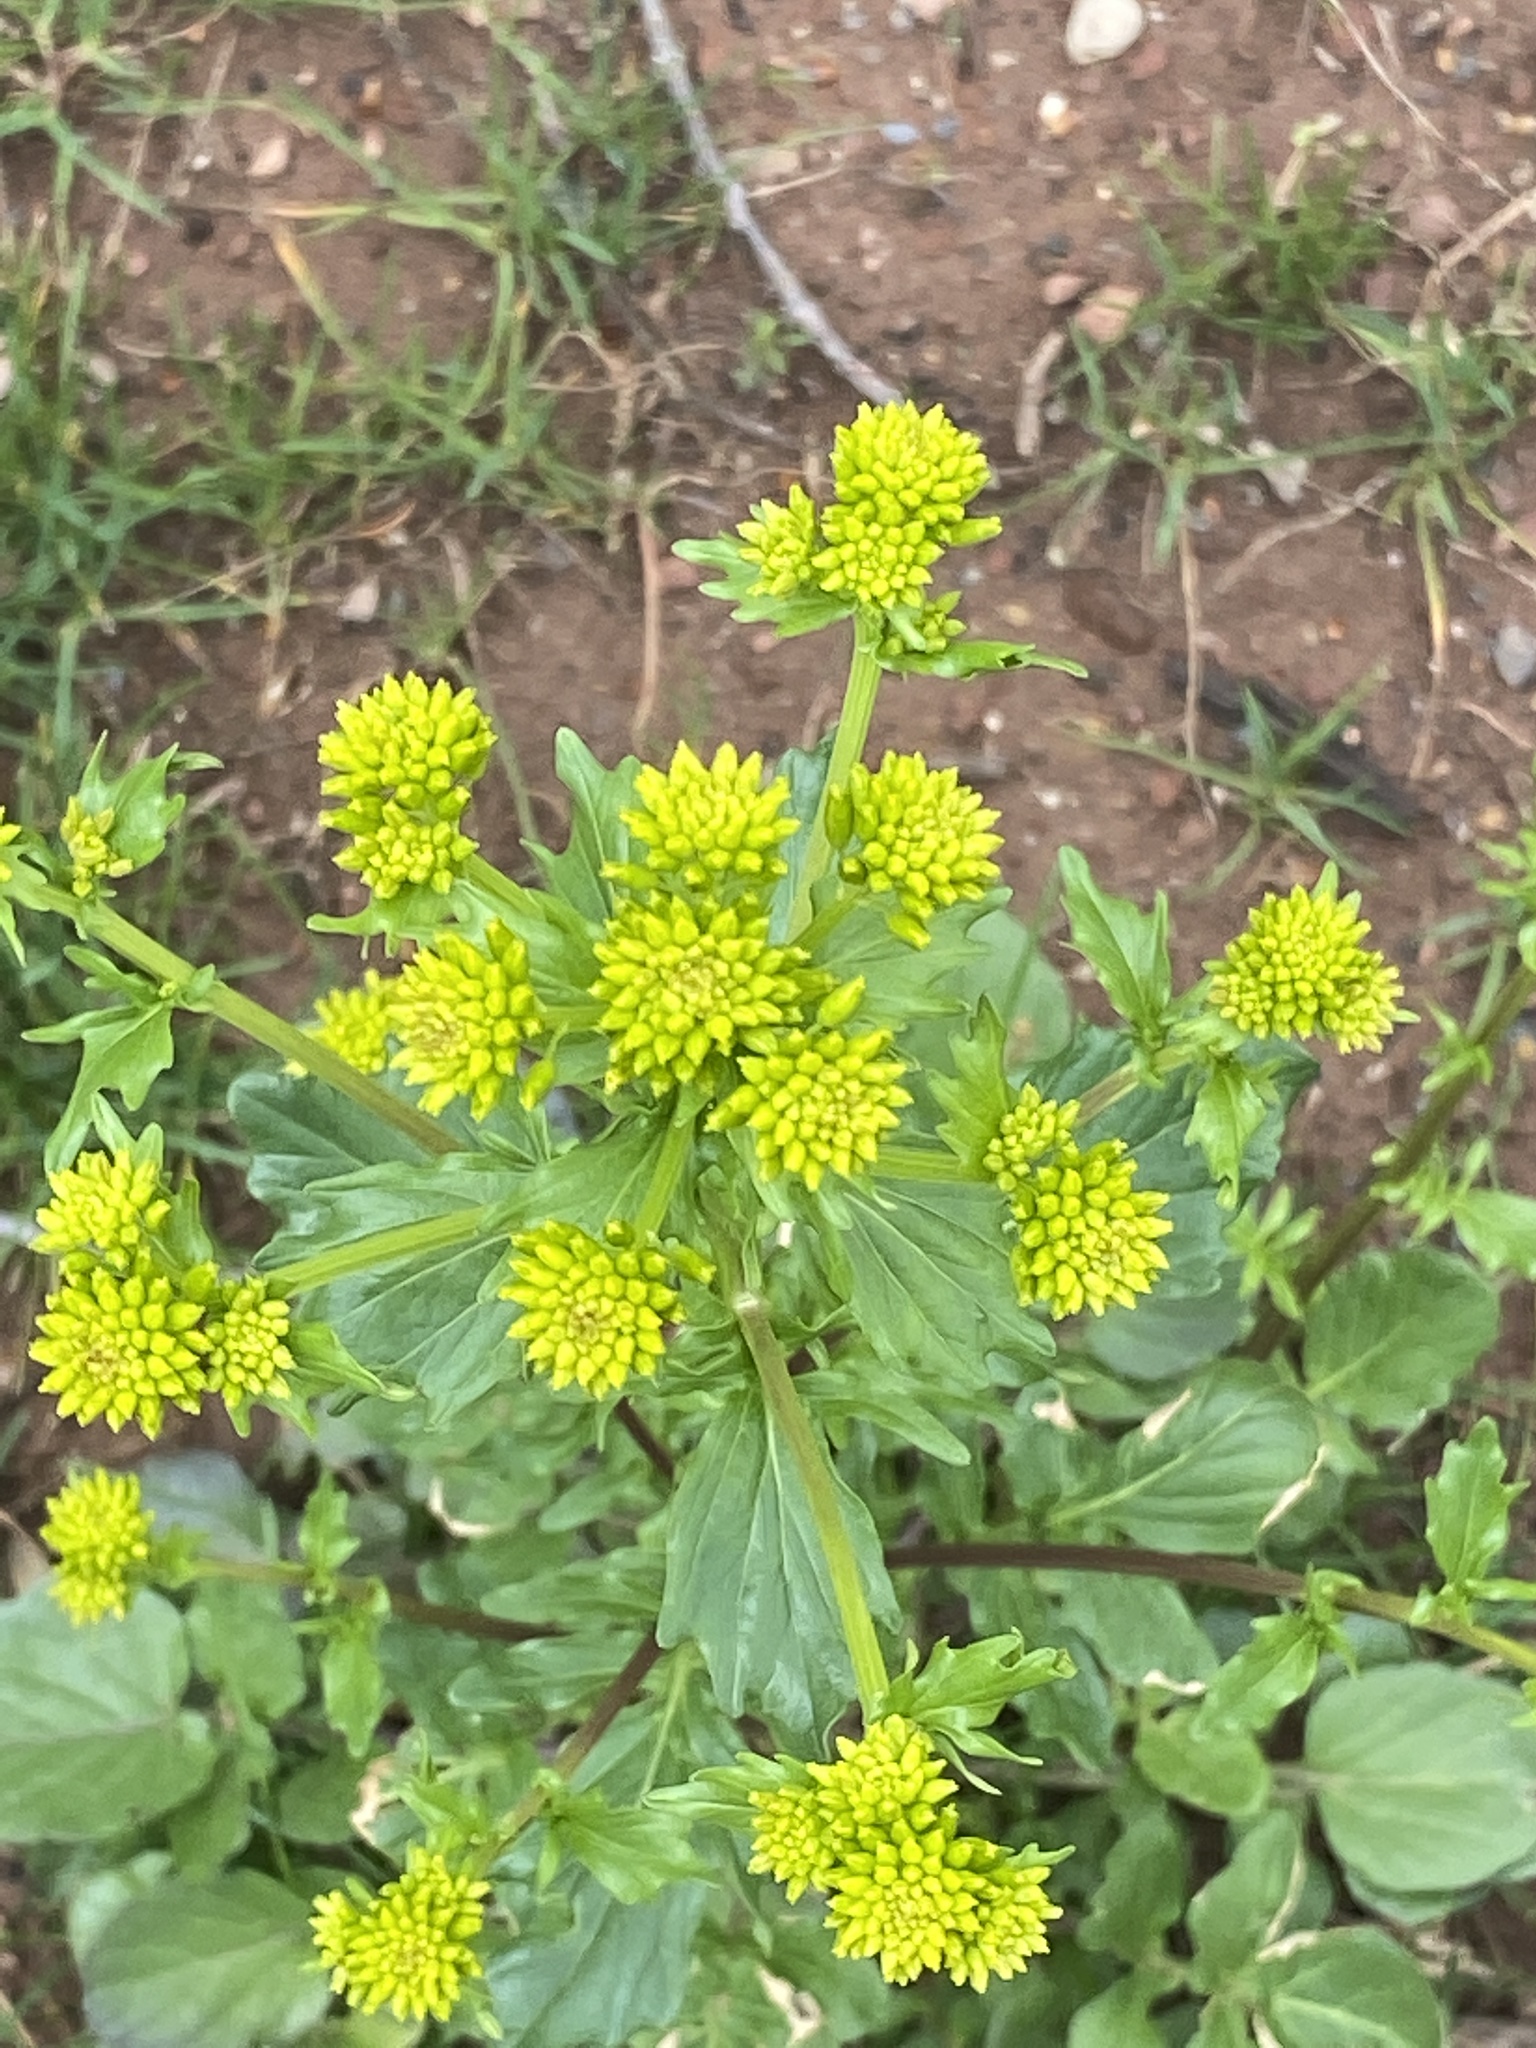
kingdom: Plantae
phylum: Tracheophyta
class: Magnoliopsida
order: Brassicales
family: Brassicaceae
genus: Barbarea
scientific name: Barbarea vulgaris
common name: Cressy-greens
